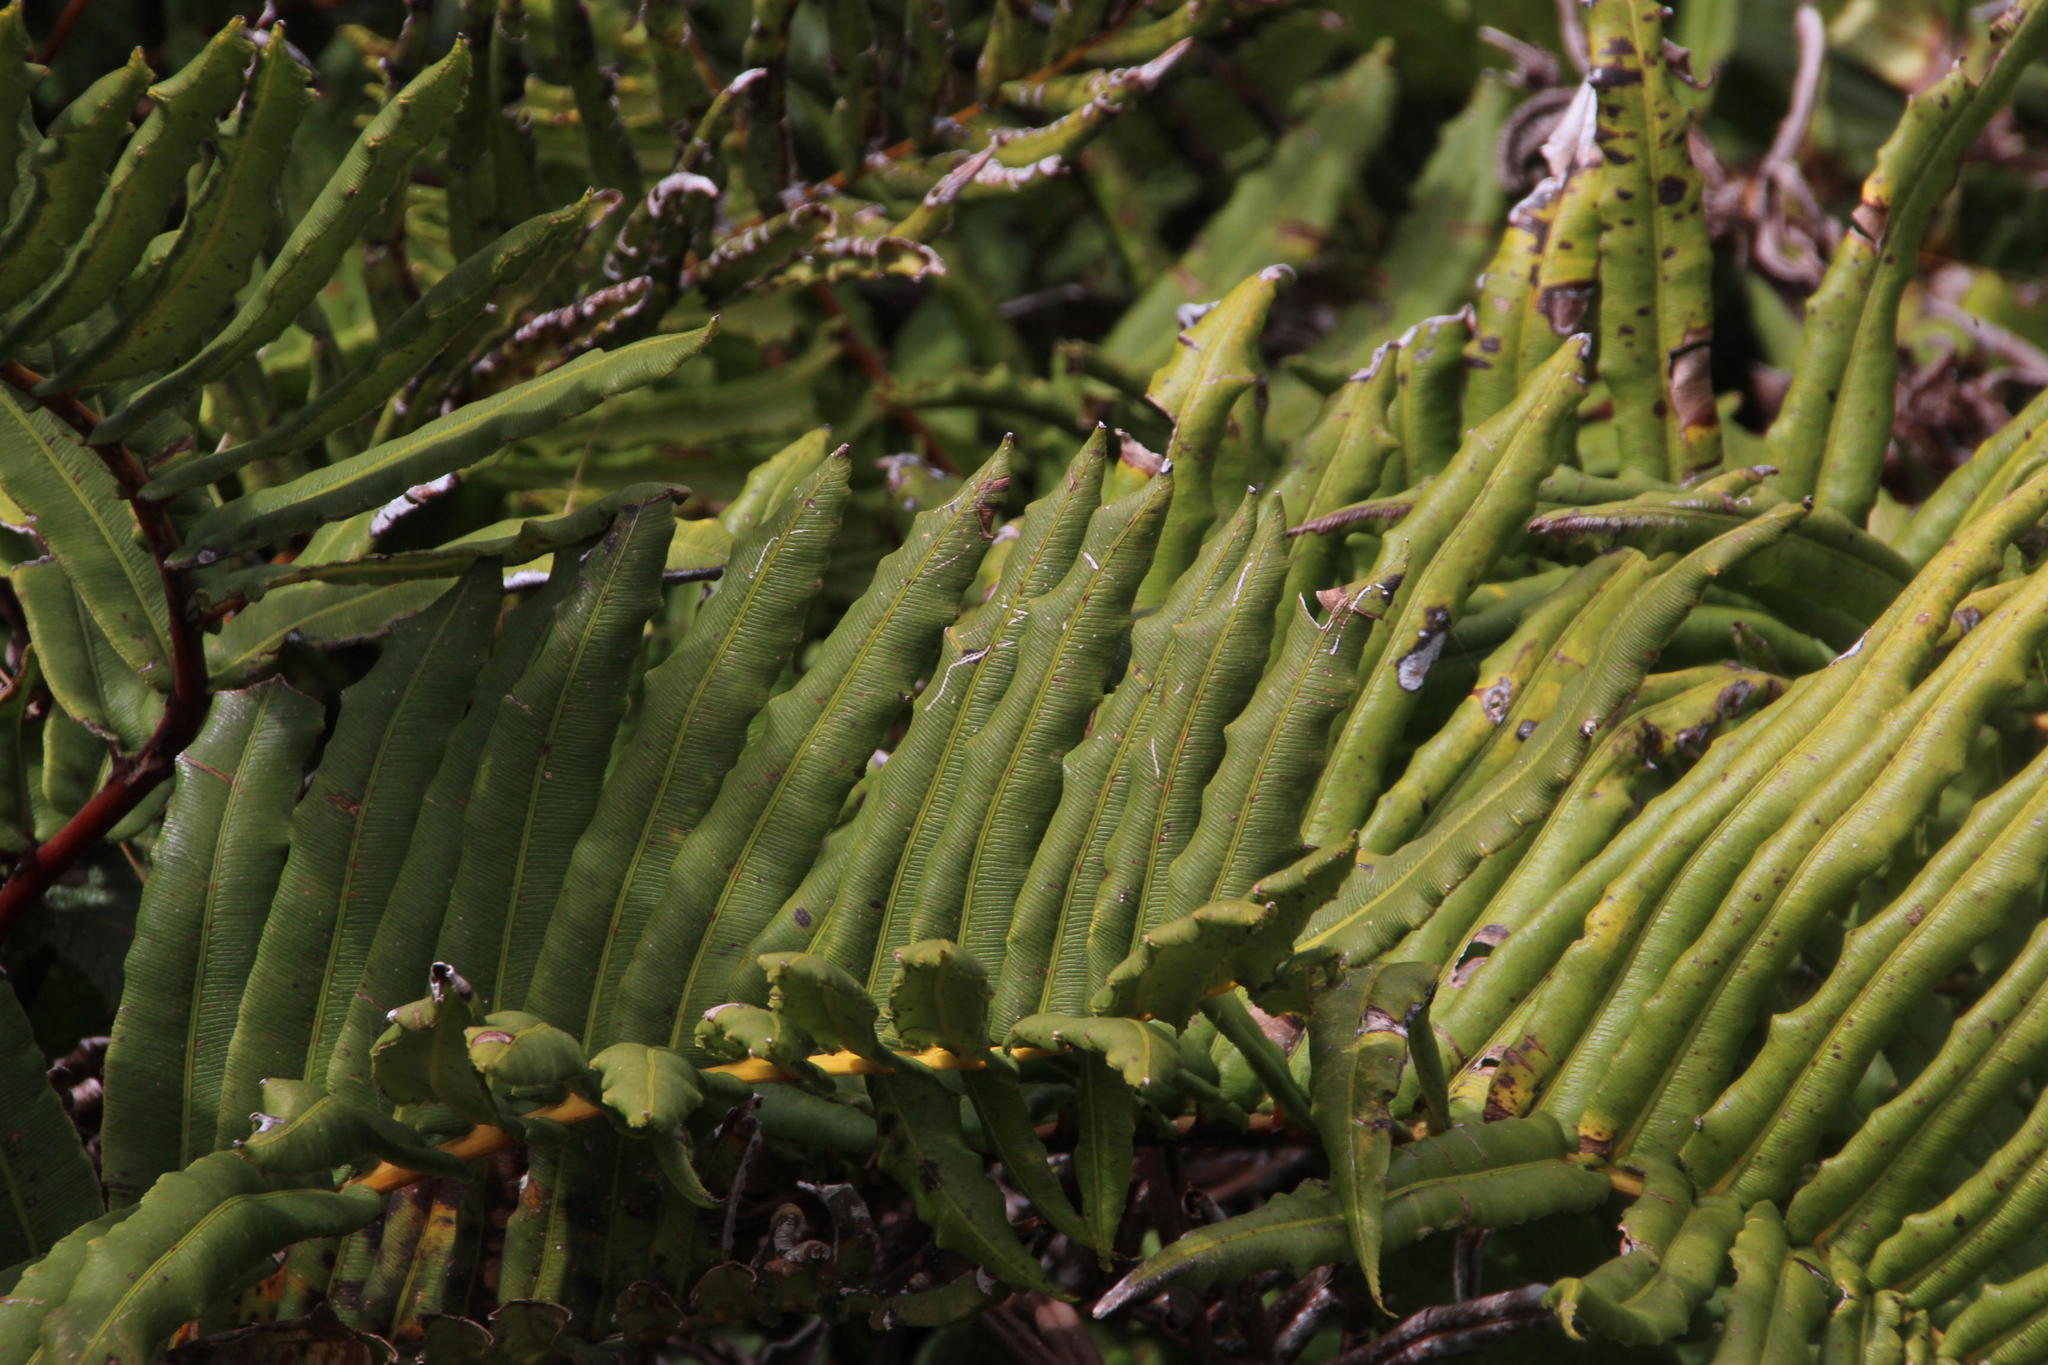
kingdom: Plantae
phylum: Tracheophyta
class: Polypodiopsida
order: Polypodiales
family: Blechnaceae
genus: Parablechnum
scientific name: Parablechnum chilense
